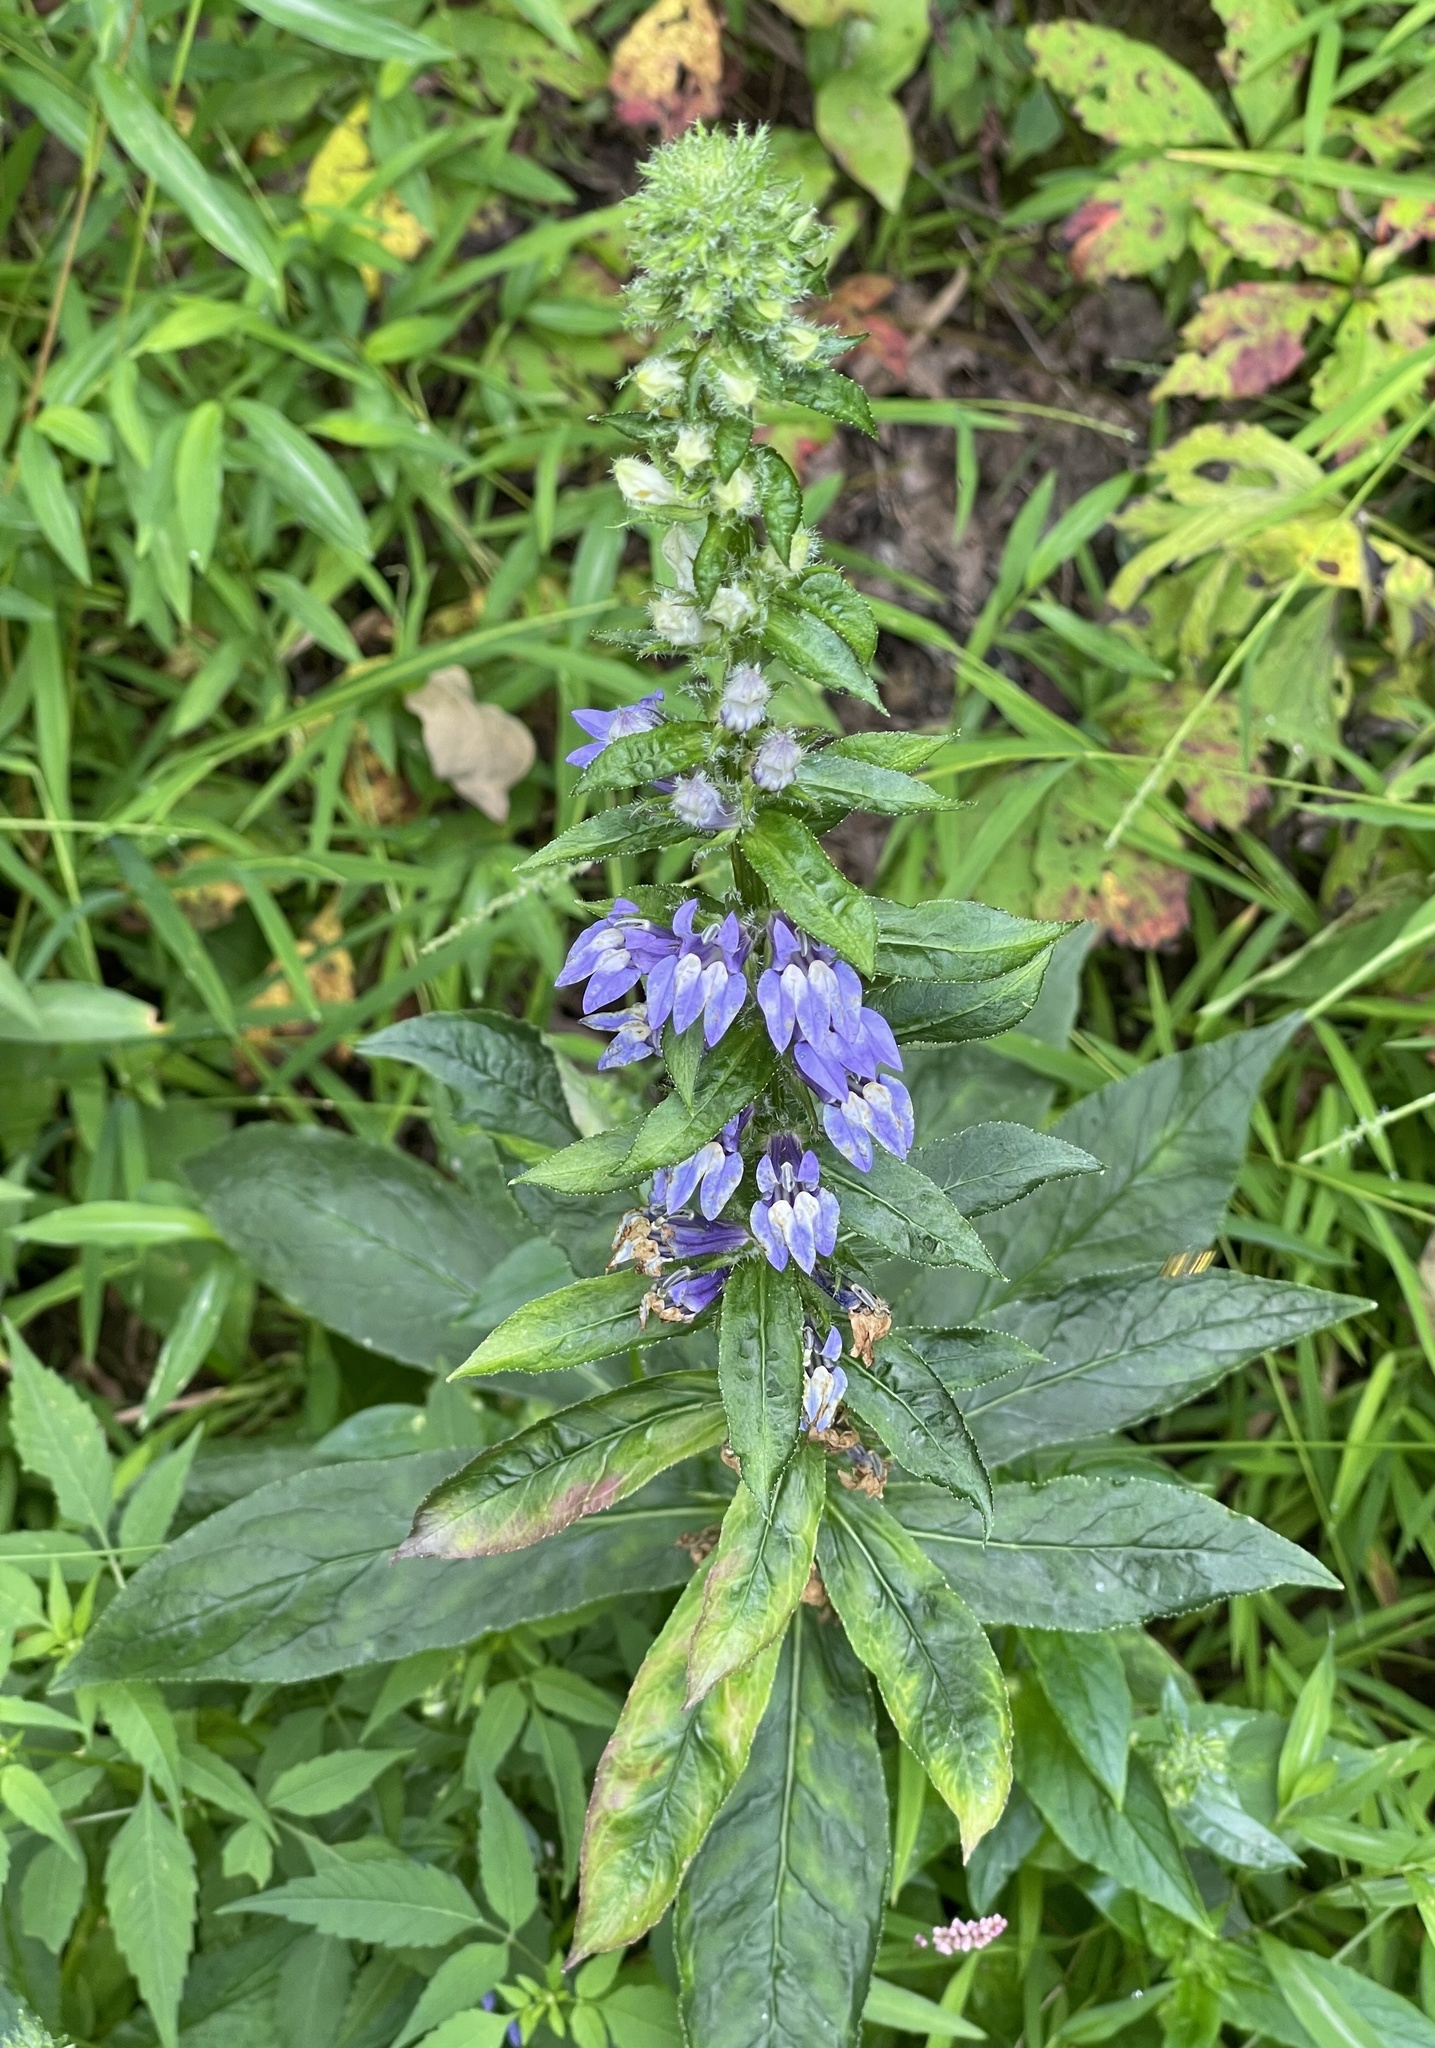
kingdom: Plantae
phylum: Tracheophyta
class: Magnoliopsida
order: Asterales
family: Campanulaceae
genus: Lobelia
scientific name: Lobelia siphilitica
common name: Great lobelia
